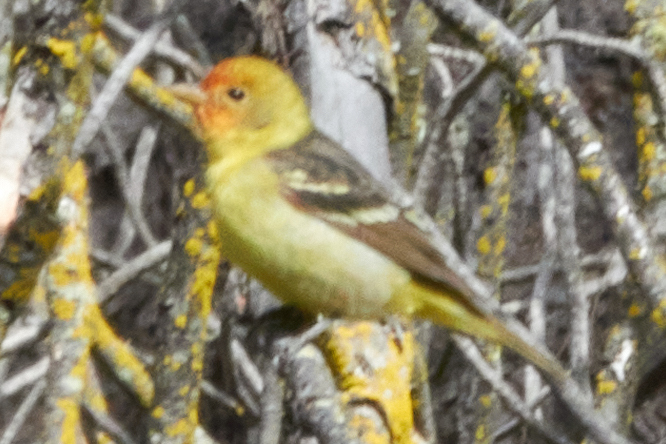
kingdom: Animalia
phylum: Chordata
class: Aves
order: Passeriformes
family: Cardinalidae
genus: Piranga
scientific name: Piranga ludoviciana
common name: Western tanager
